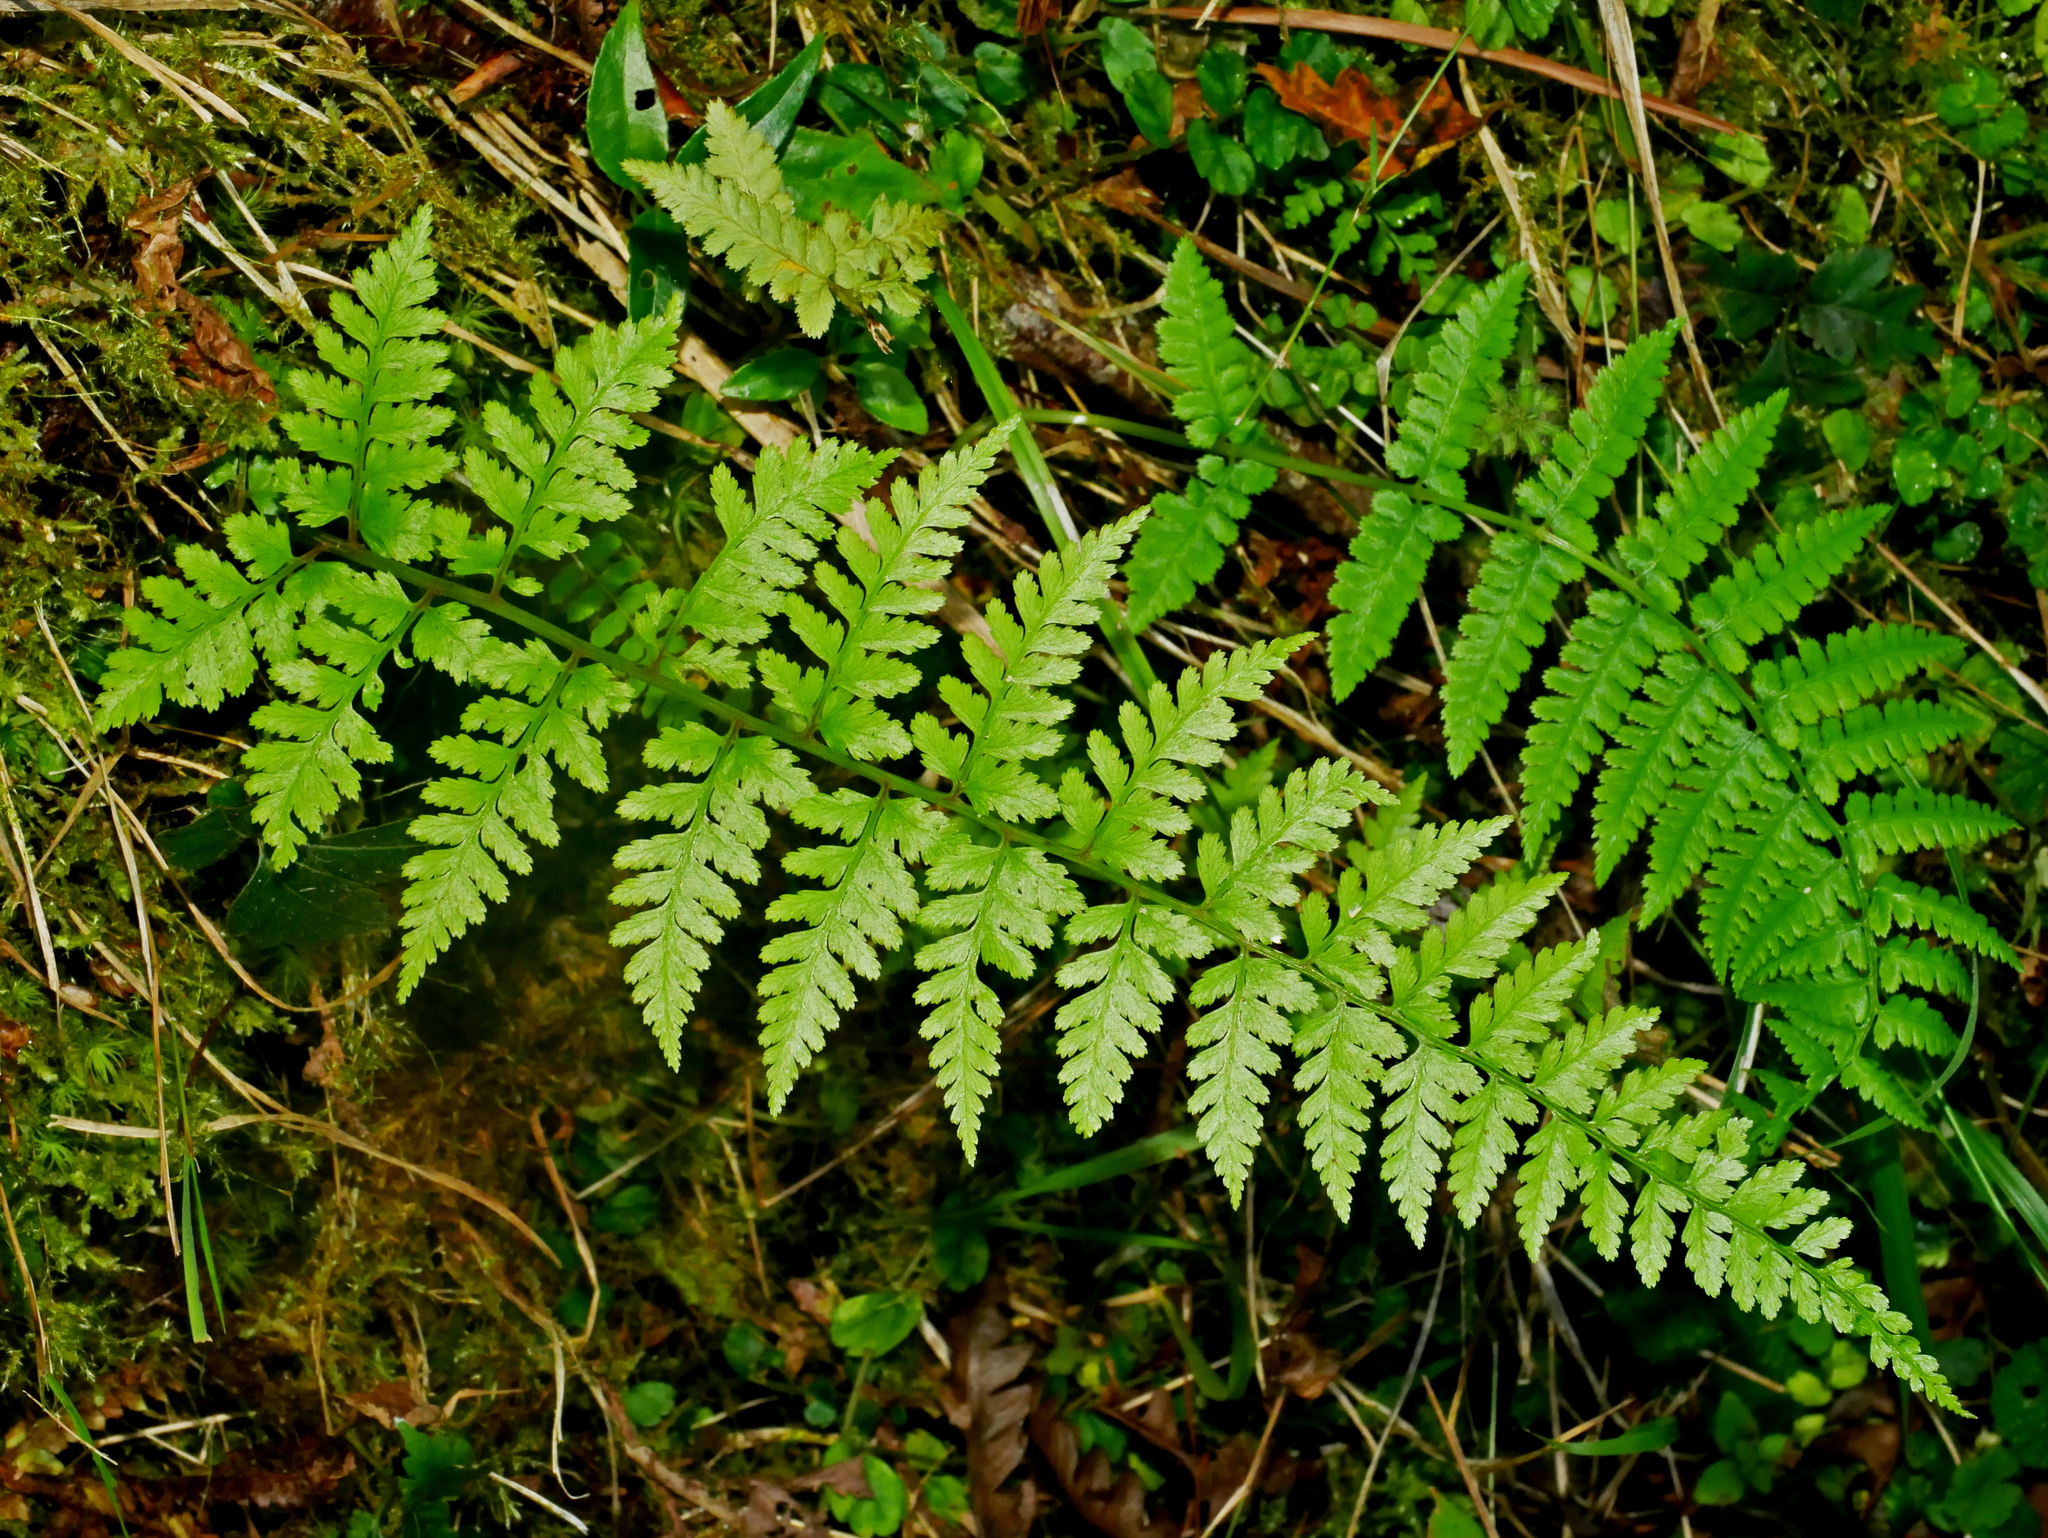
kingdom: Plantae
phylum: Tracheophyta
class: Polypodiopsida
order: Polypodiales
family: Athyriaceae
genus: Athyrium
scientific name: Athyrium strigillosum
